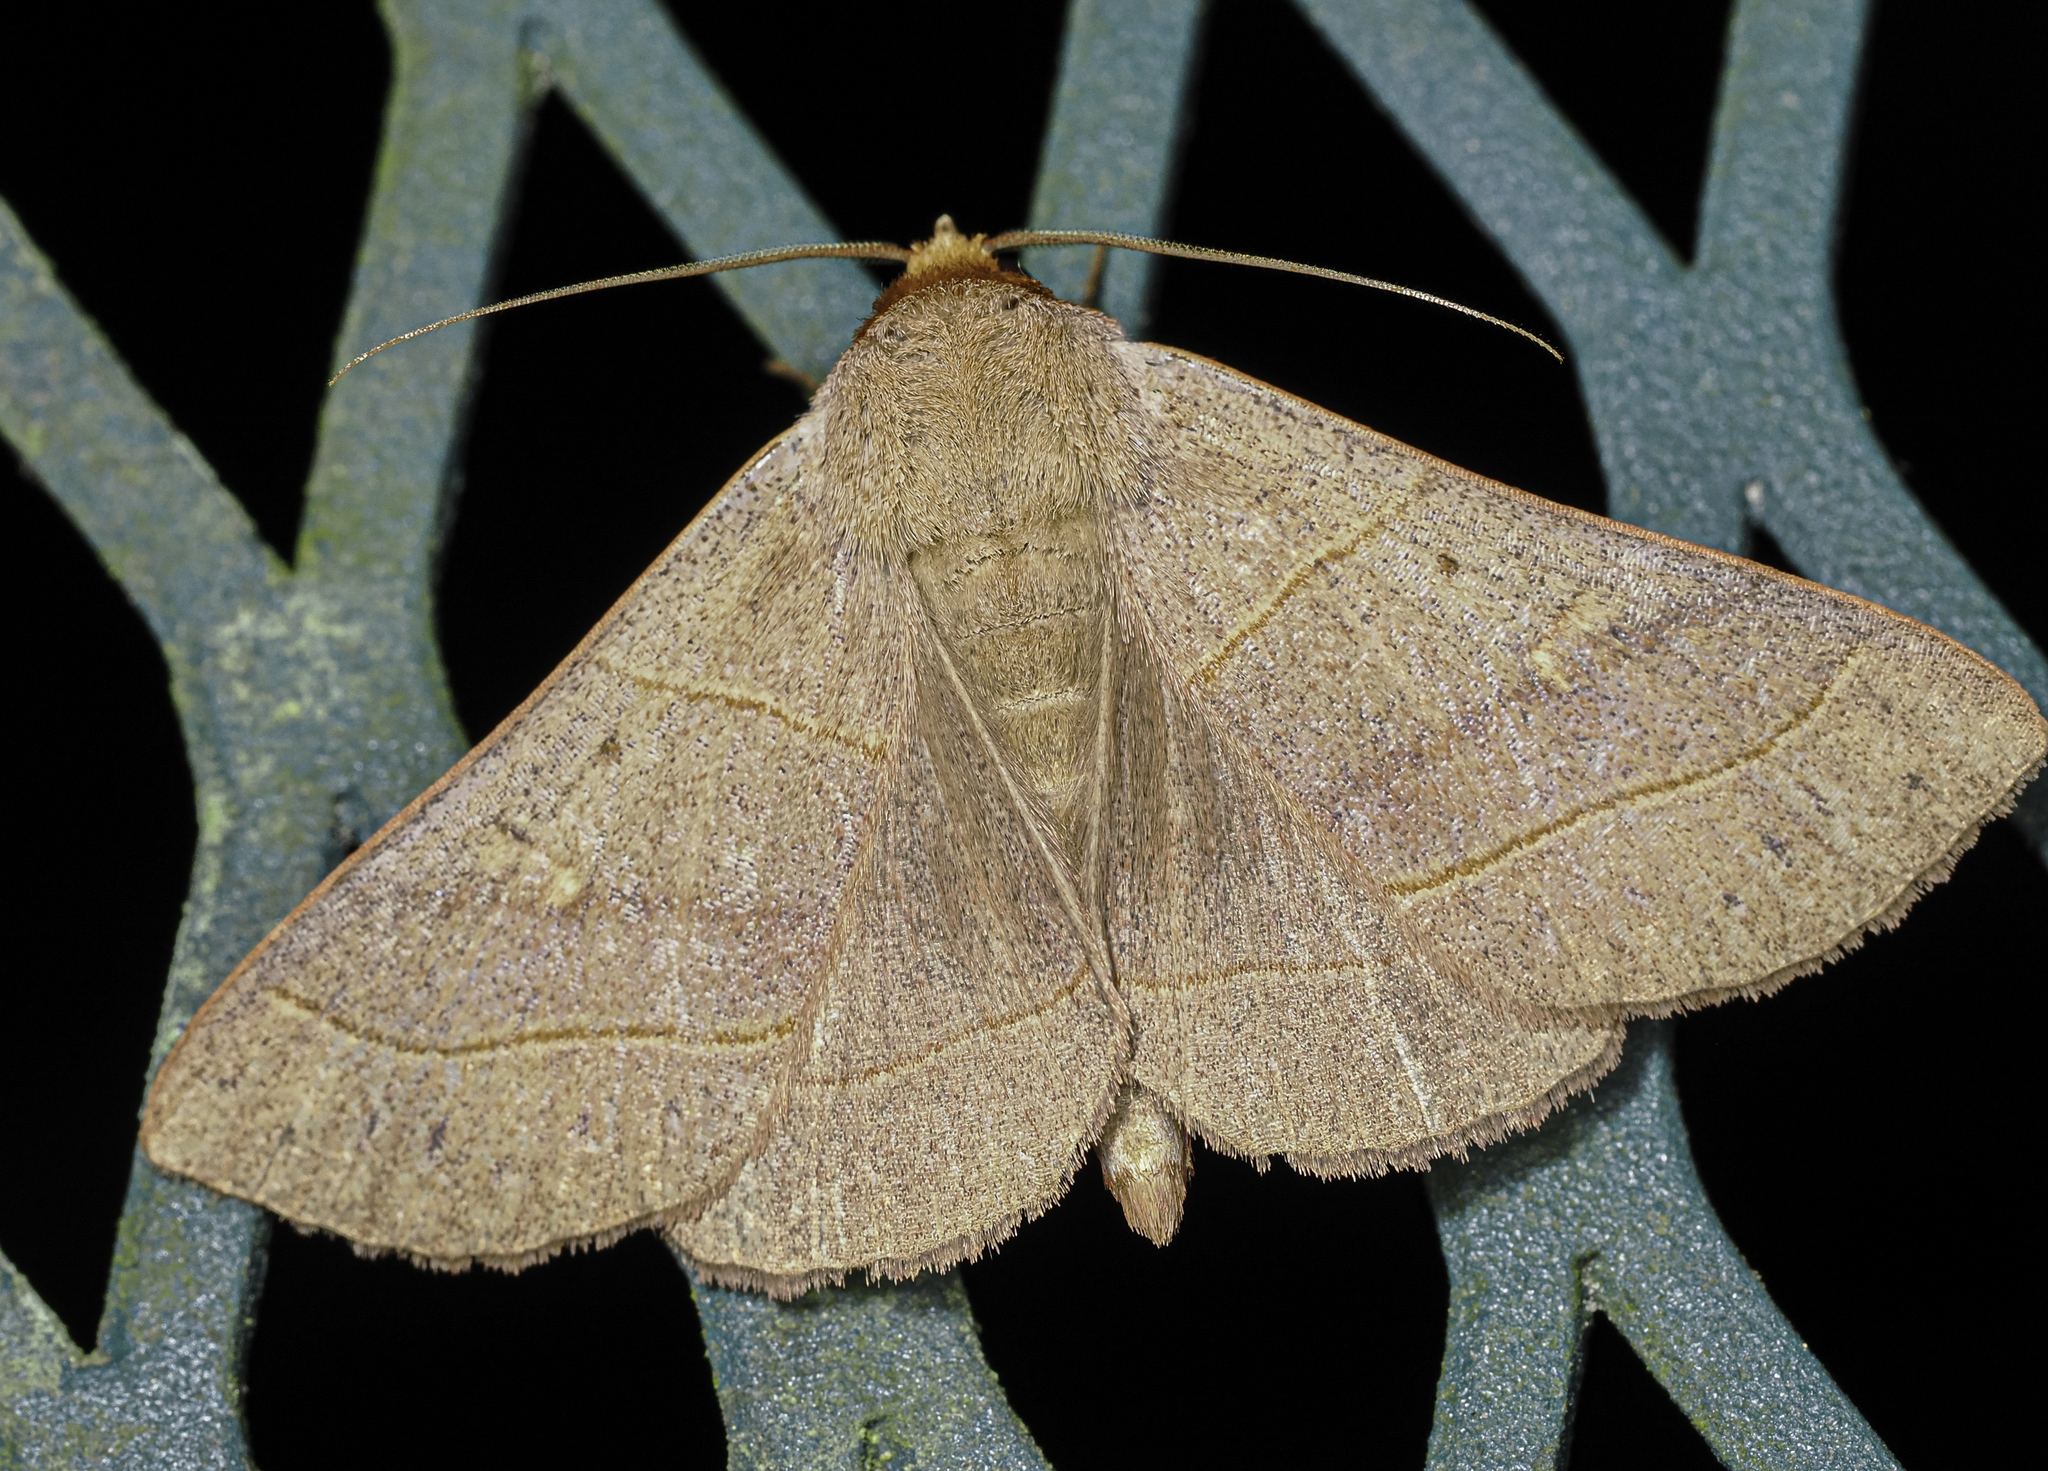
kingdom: Animalia
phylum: Arthropoda
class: Insecta
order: Lepidoptera
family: Erebidae
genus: Panopoda
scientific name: Panopoda rufimargo
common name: Red-lined panopoda moth
